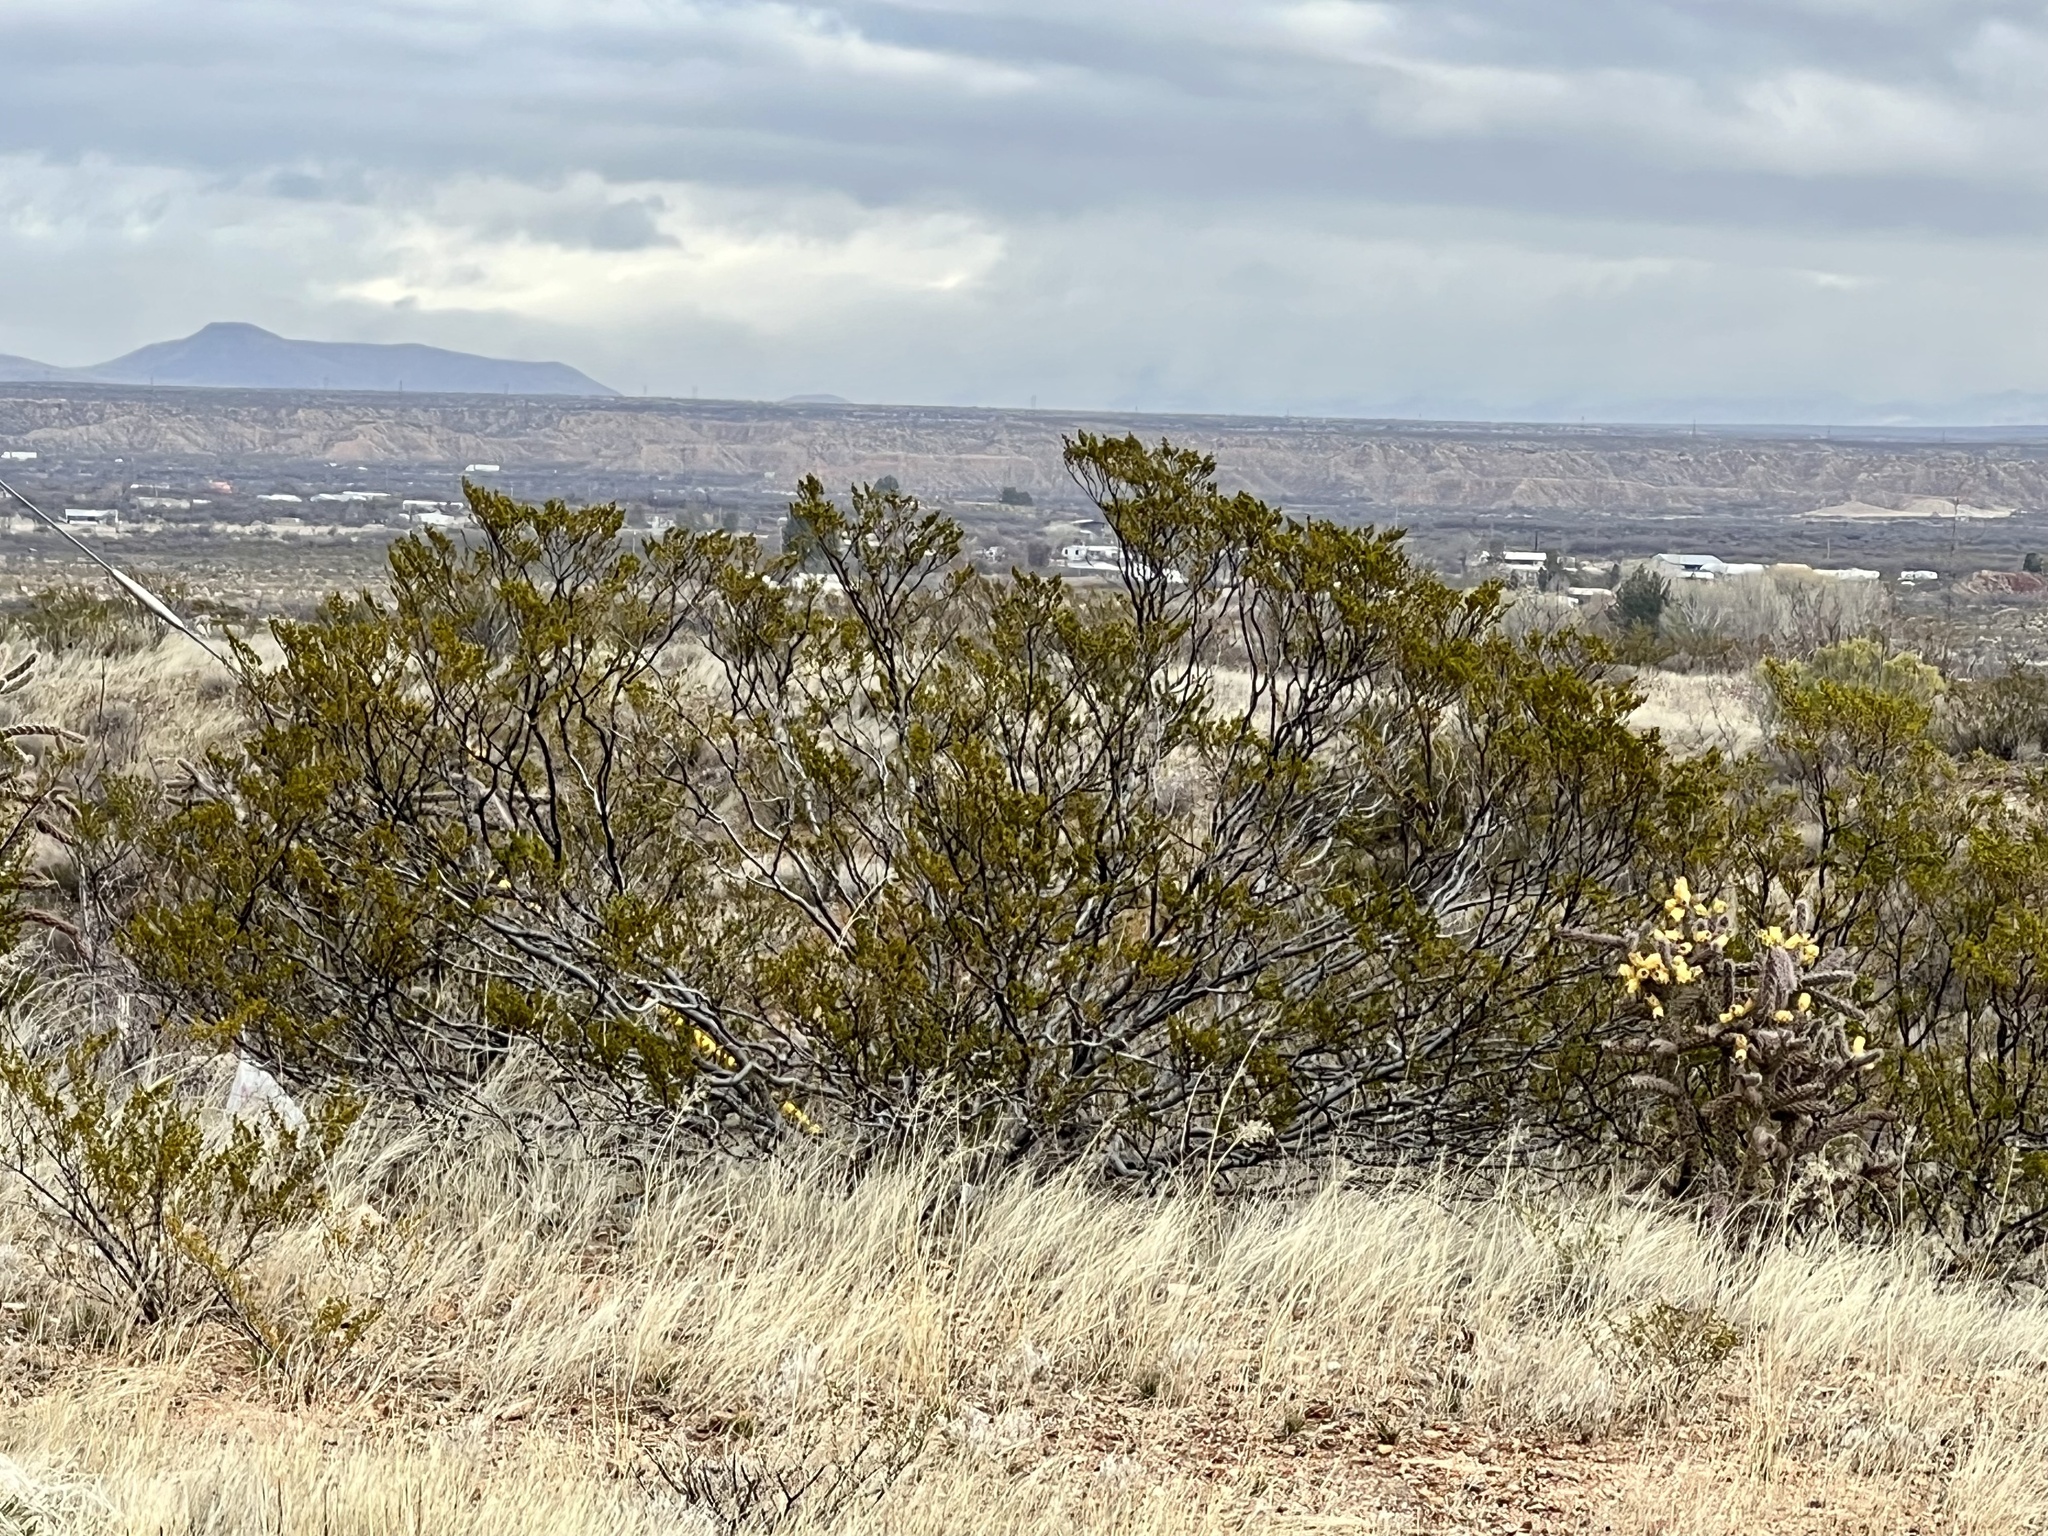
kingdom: Plantae
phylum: Tracheophyta
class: Magnoliopsida
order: Zygophyllales
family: Zygophyllaceae
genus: Larrea
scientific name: Larrea tridentata
